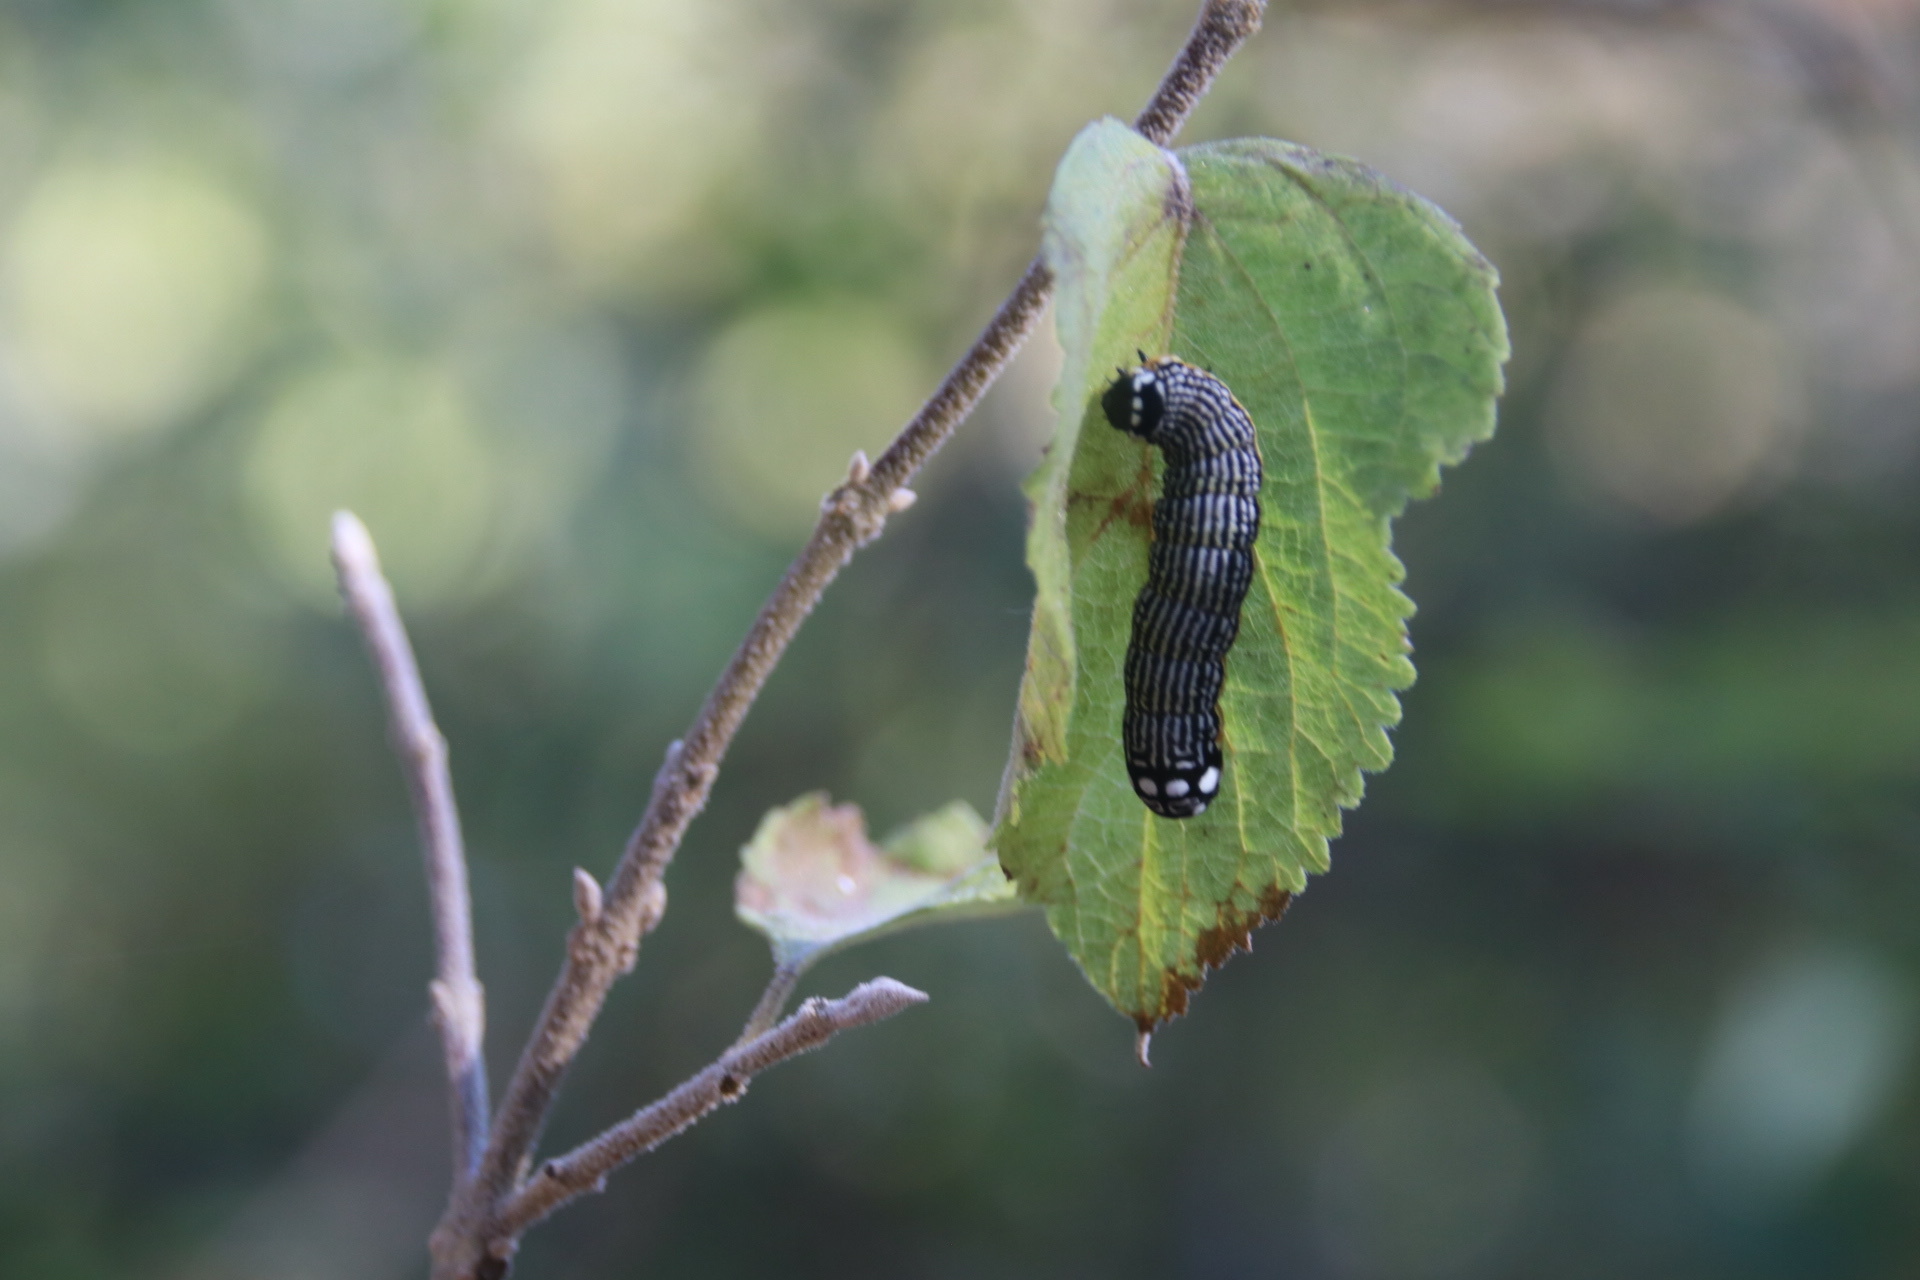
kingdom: Animalia
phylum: Arthropoda
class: Insecta
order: Lepidoptera
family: Noctuidae
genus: Phosphila
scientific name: Phosphila turbulenta
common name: Turbulent phosphila moth
